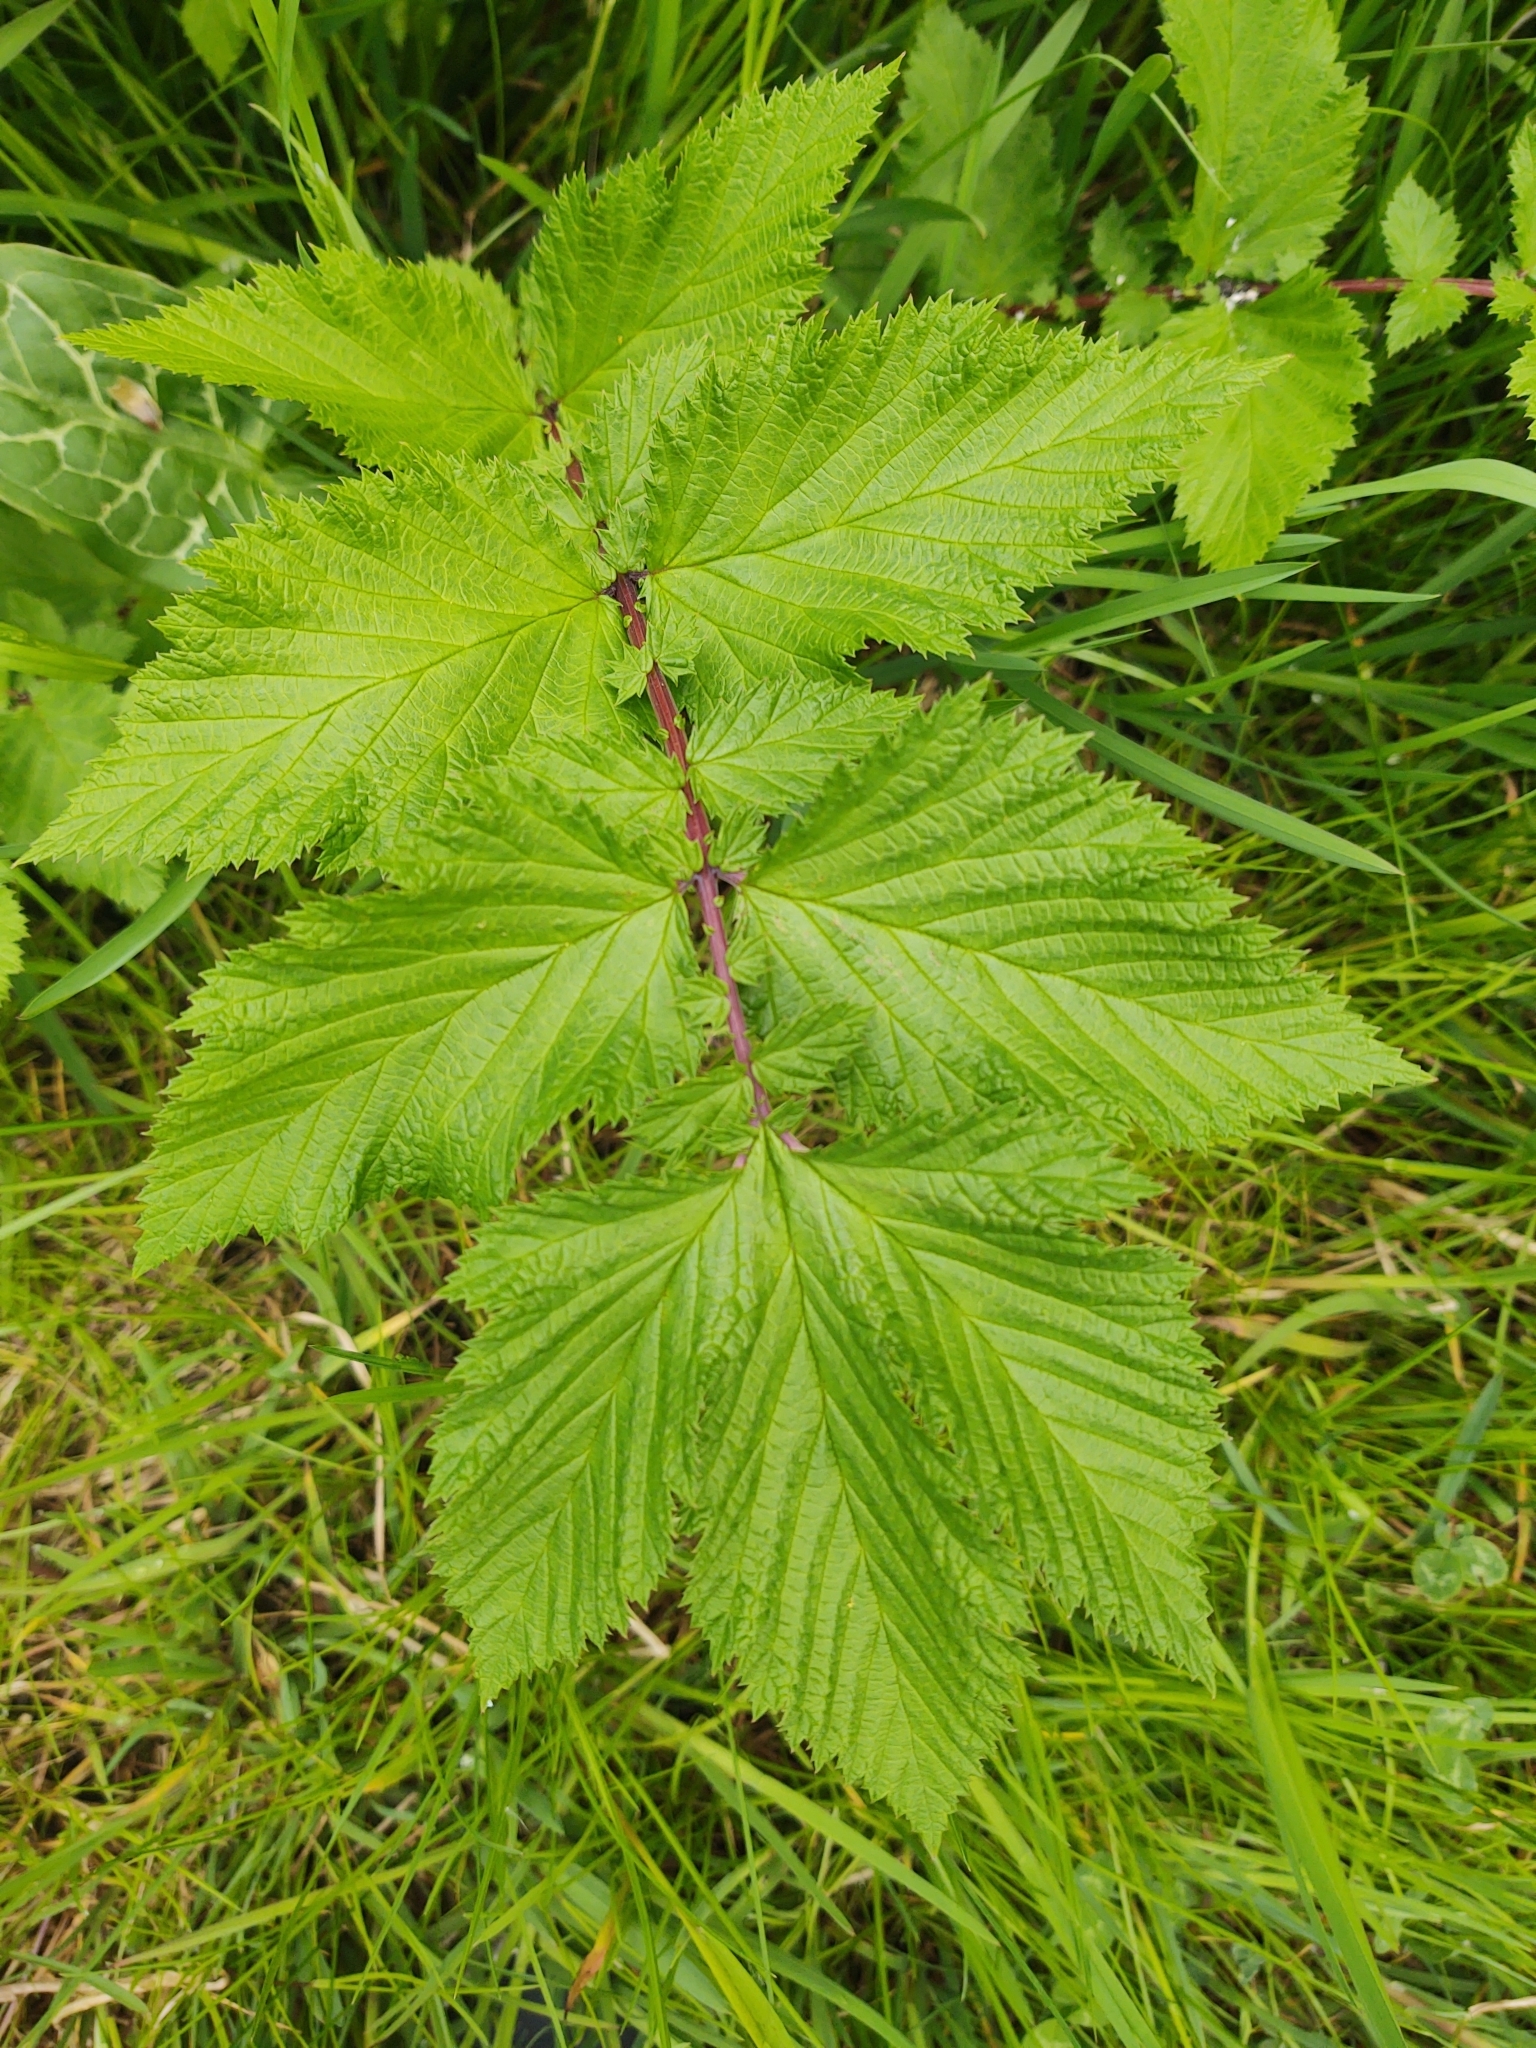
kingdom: Plantae
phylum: Tracheophyta
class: Magnoliopsida
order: Rosales
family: Rosaceae
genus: Filipendula
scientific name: Filipendula ulmaria
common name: Meadowsweet
